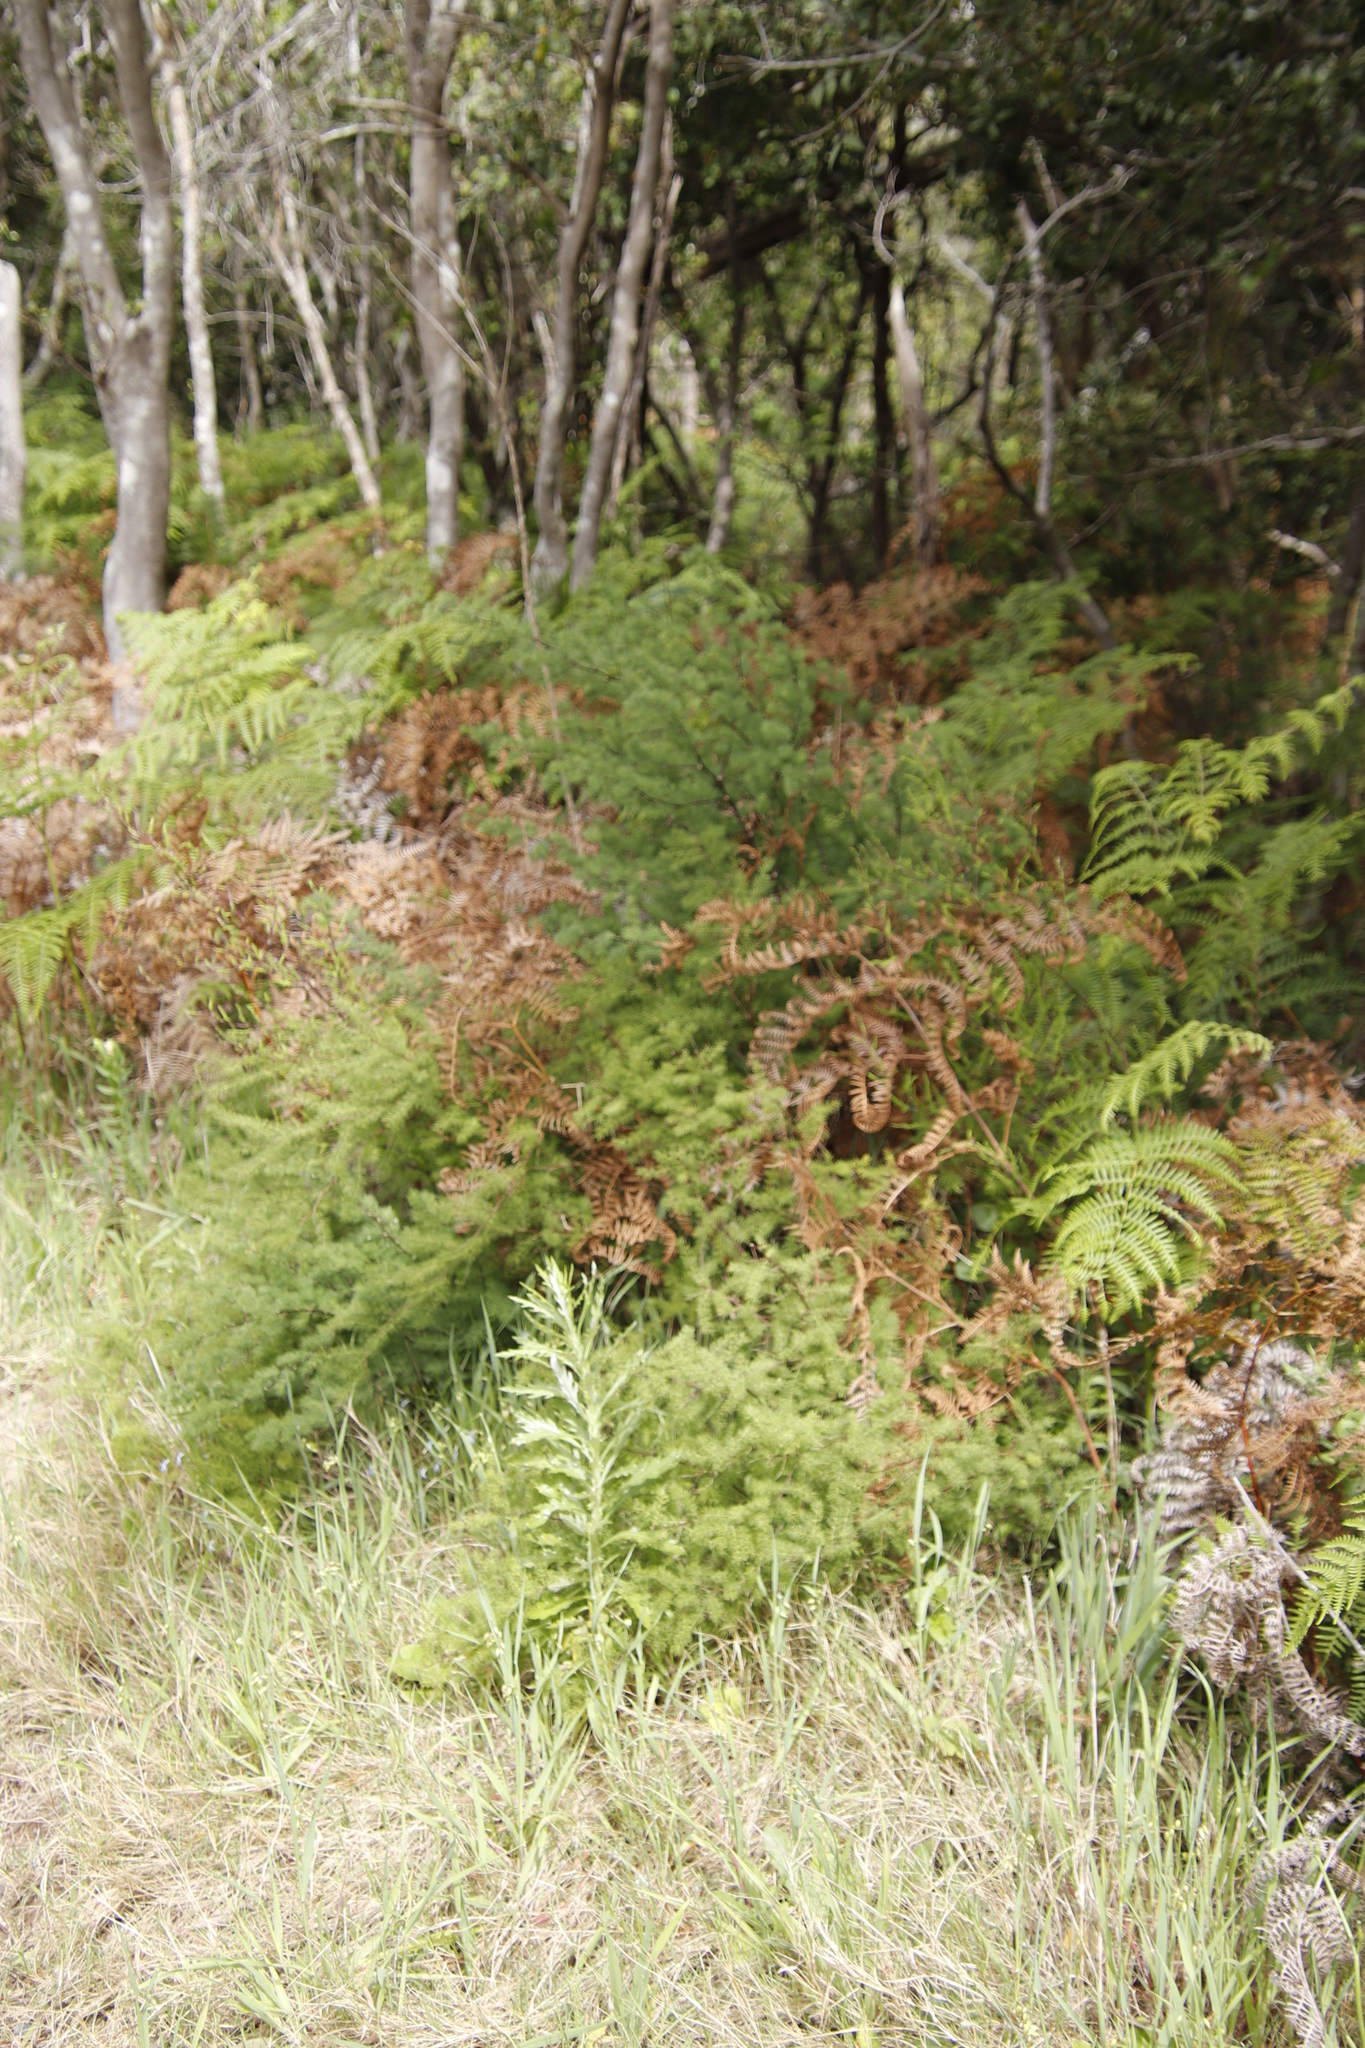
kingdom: Plantae
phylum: Tracheophyta
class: Polypodiopsida
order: Polypodiales
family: Dennstaedtiaceae
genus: Pteridium
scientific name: Pteridium aquilinum
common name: Bracken
